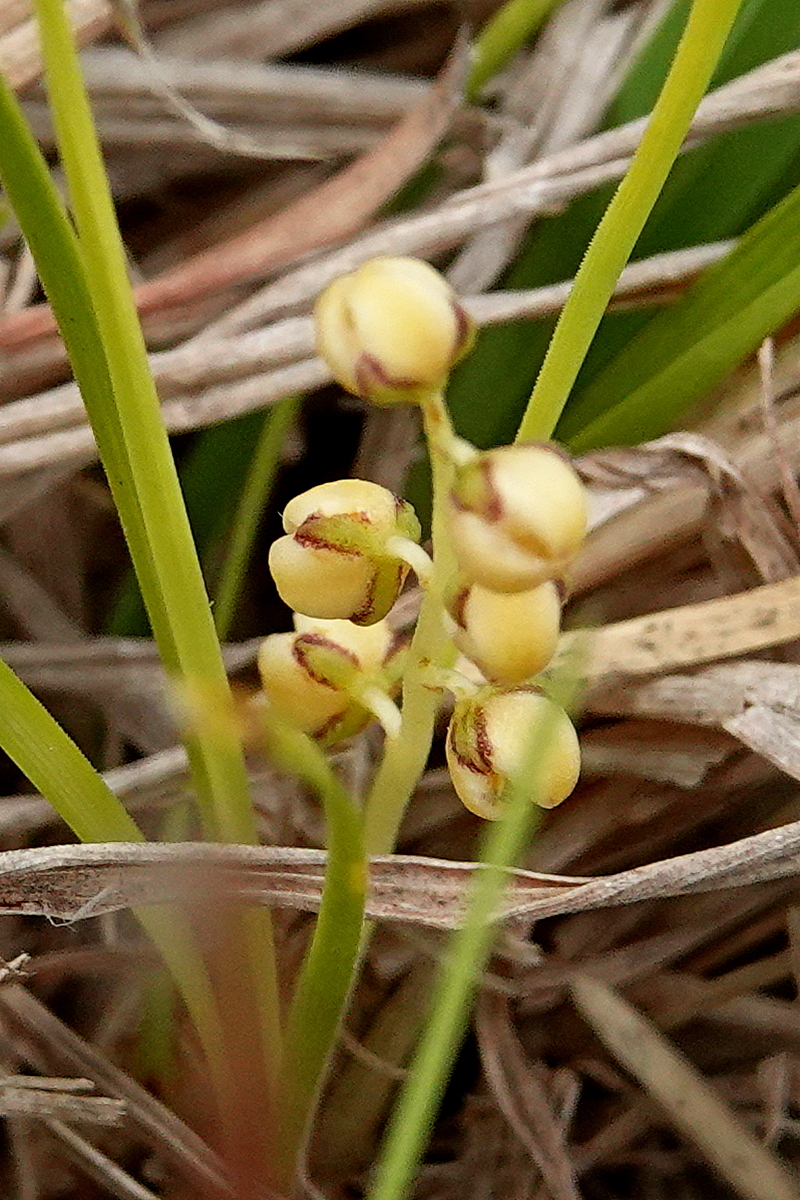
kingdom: Plantae
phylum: Tracheophyta
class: Liliopsida
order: Asparagales
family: Asparagaceae
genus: Lomandra
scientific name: Lomandra filiformis
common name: Wattle mat-rush
